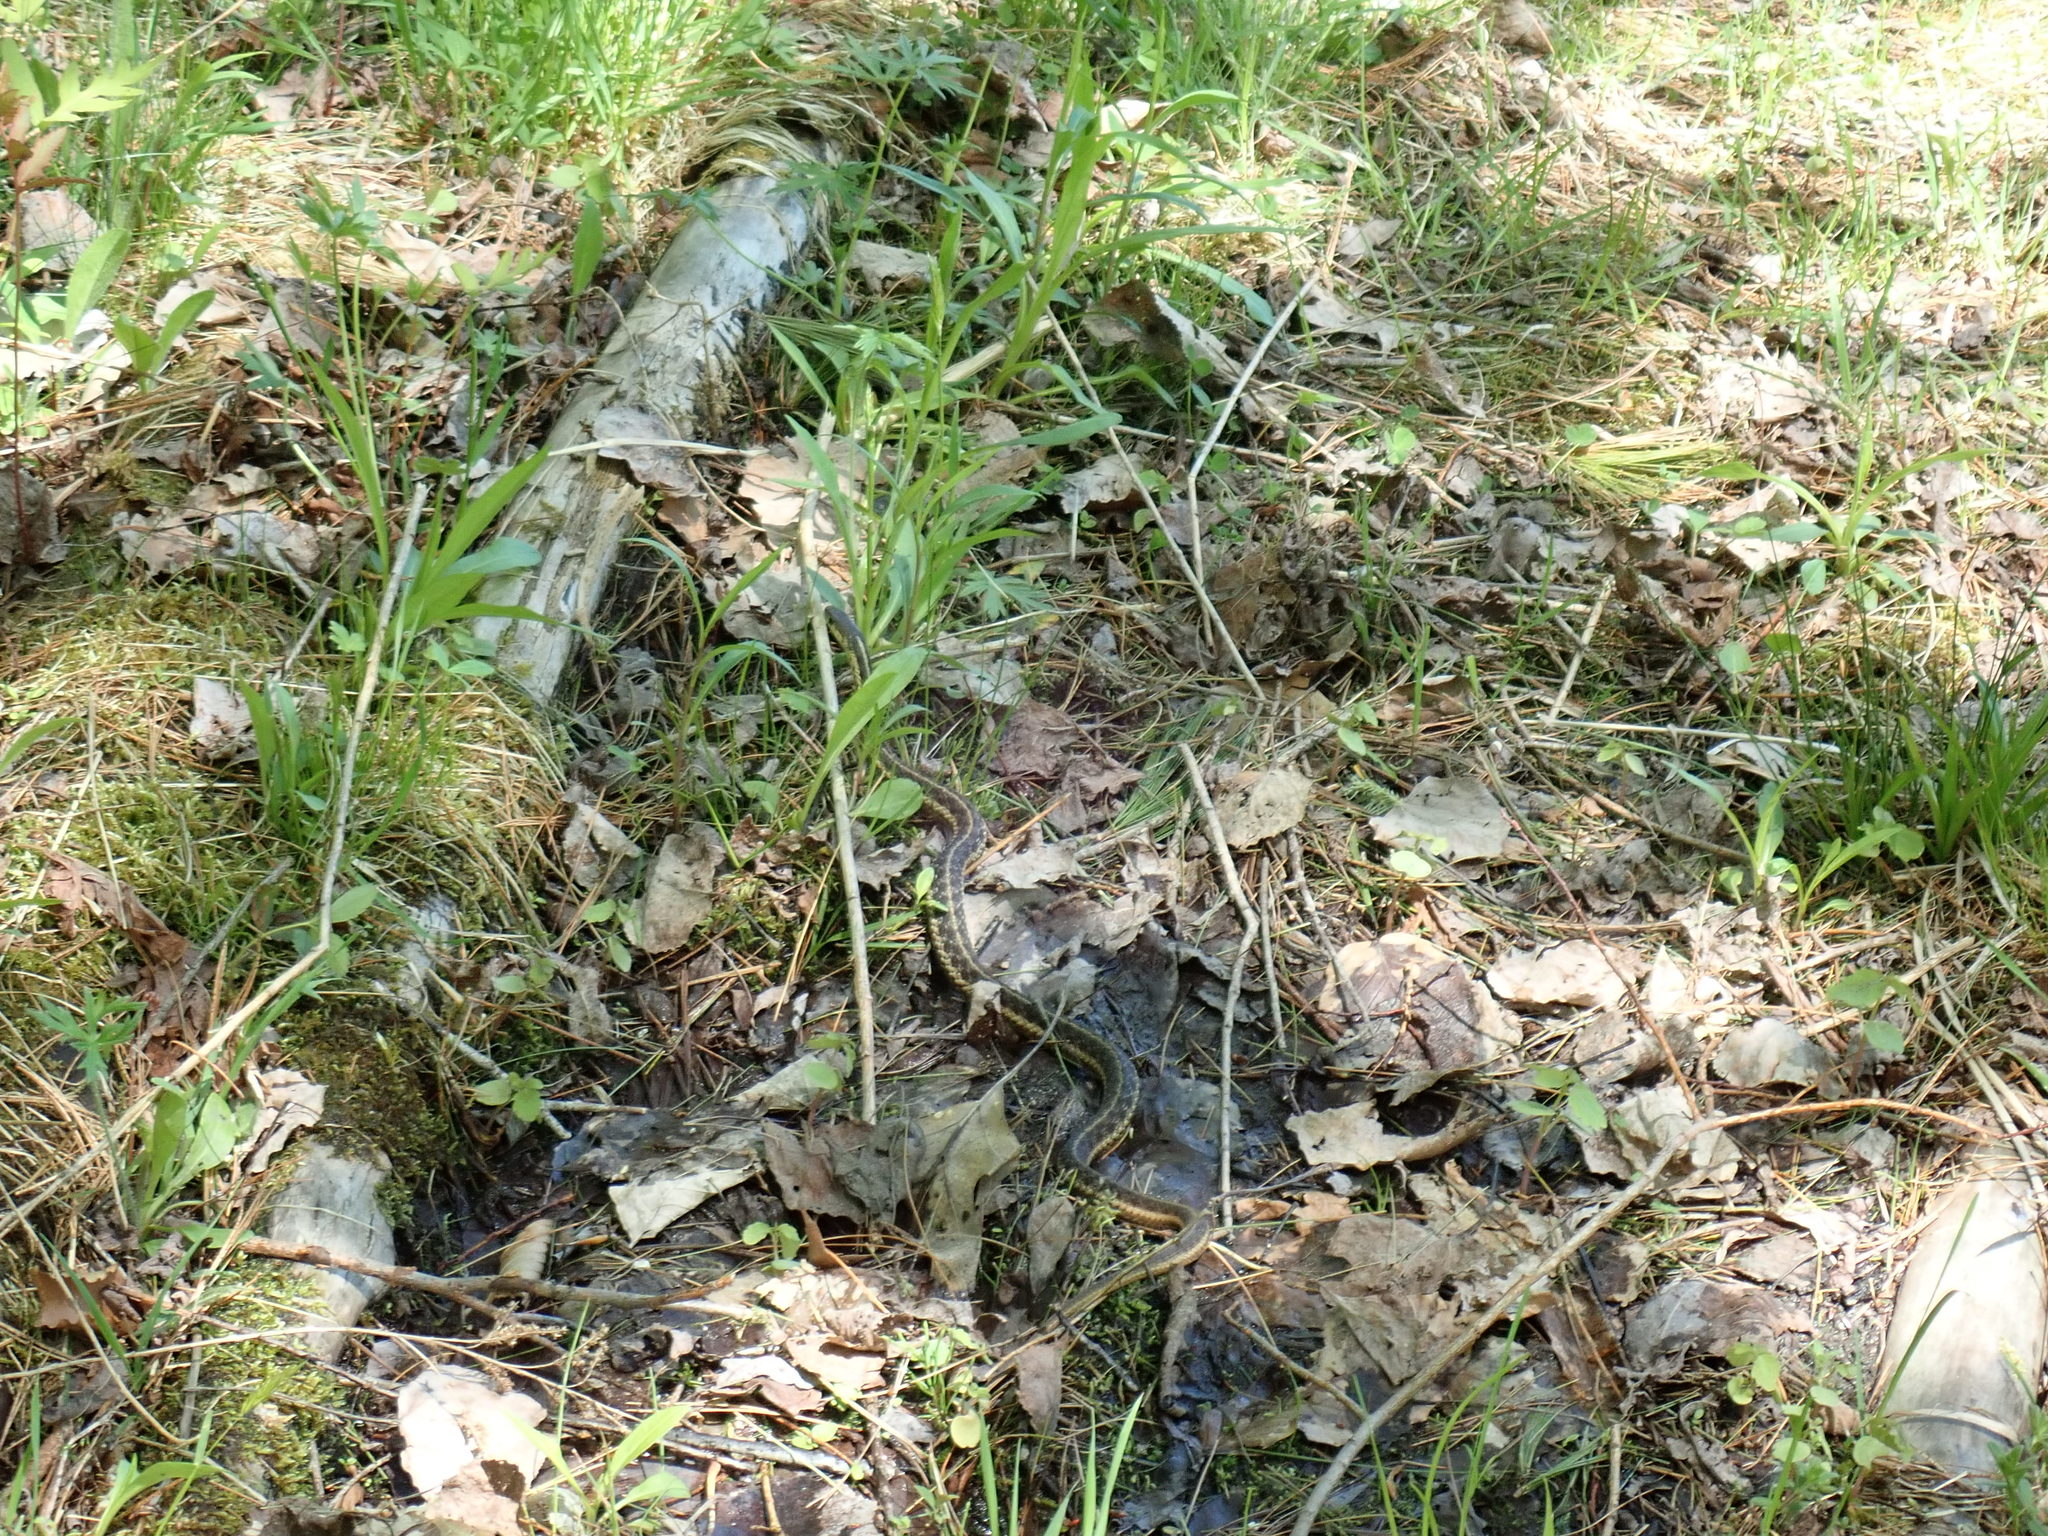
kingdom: Animalia
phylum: Chordata
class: Squamata
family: Colubridae
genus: Thamnophis
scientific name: Thamnophis sirtalis
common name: Common garter snake
